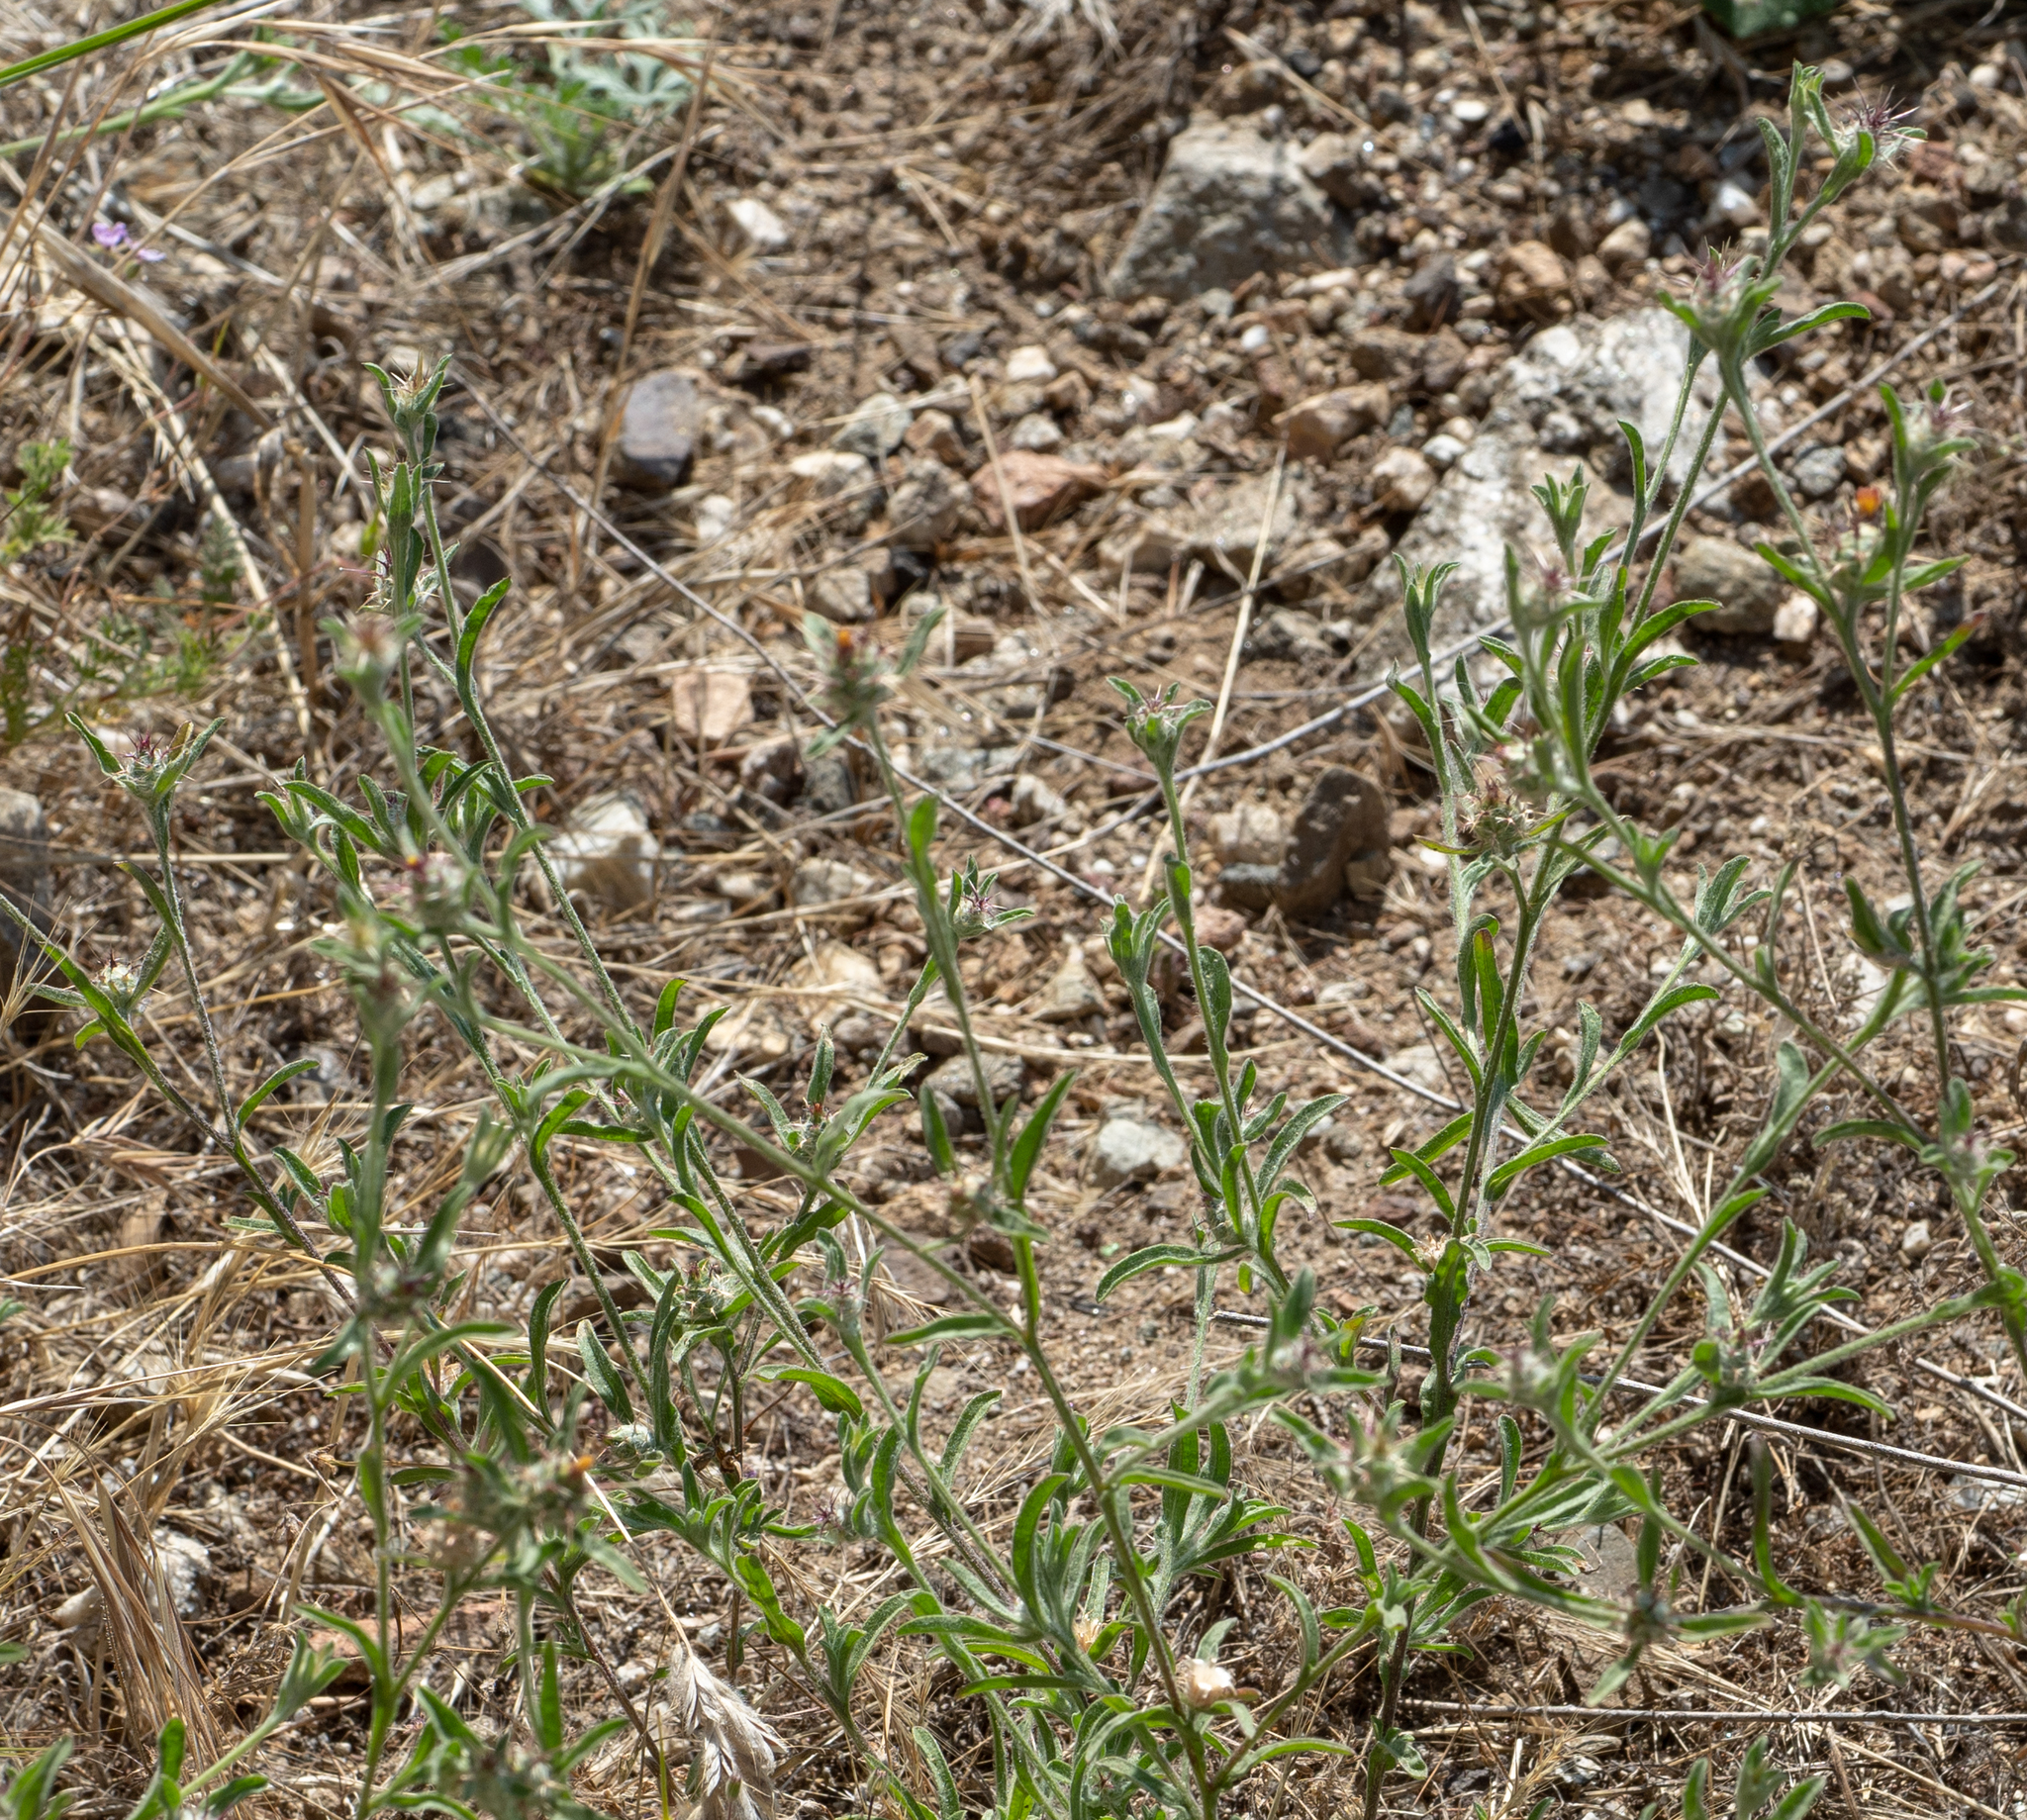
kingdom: Plantae
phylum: Tracheophyta
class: Magnoliopsida
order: Asterales
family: Asteraceae
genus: Centaurea
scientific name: Centaurea melitensis
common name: Maltese star-thistle
